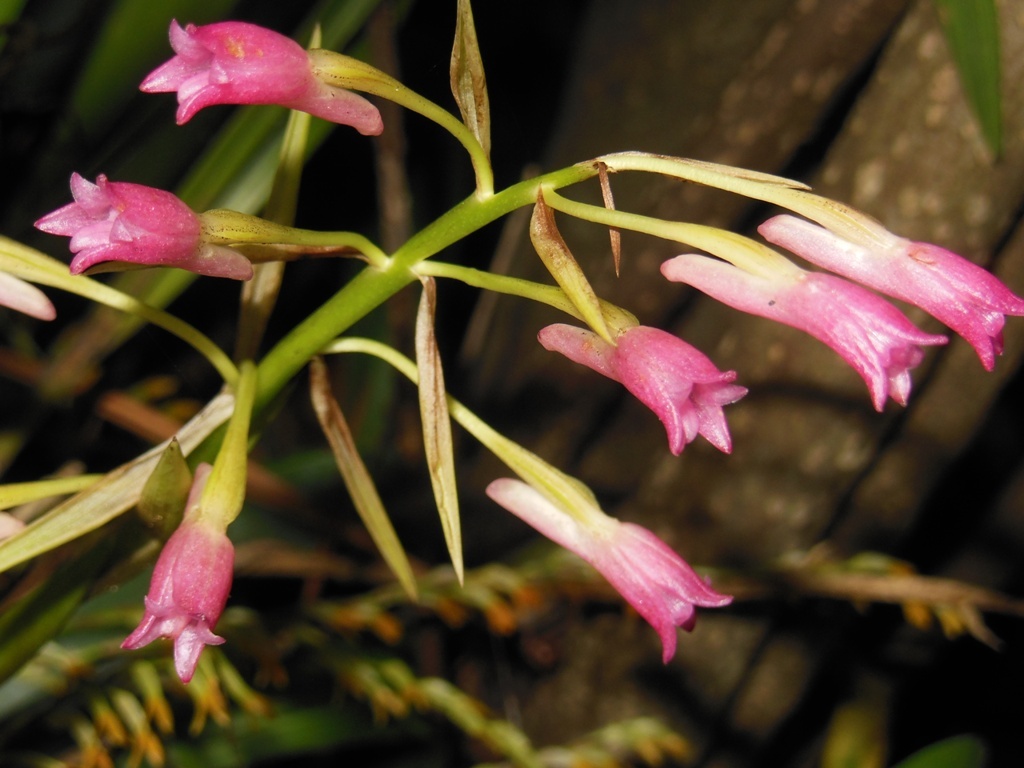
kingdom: Plantae
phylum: Tracheophyta
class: Liliopsida
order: Asparagales
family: Orchidaceae
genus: Coelia
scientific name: Coelia guatemalensis
